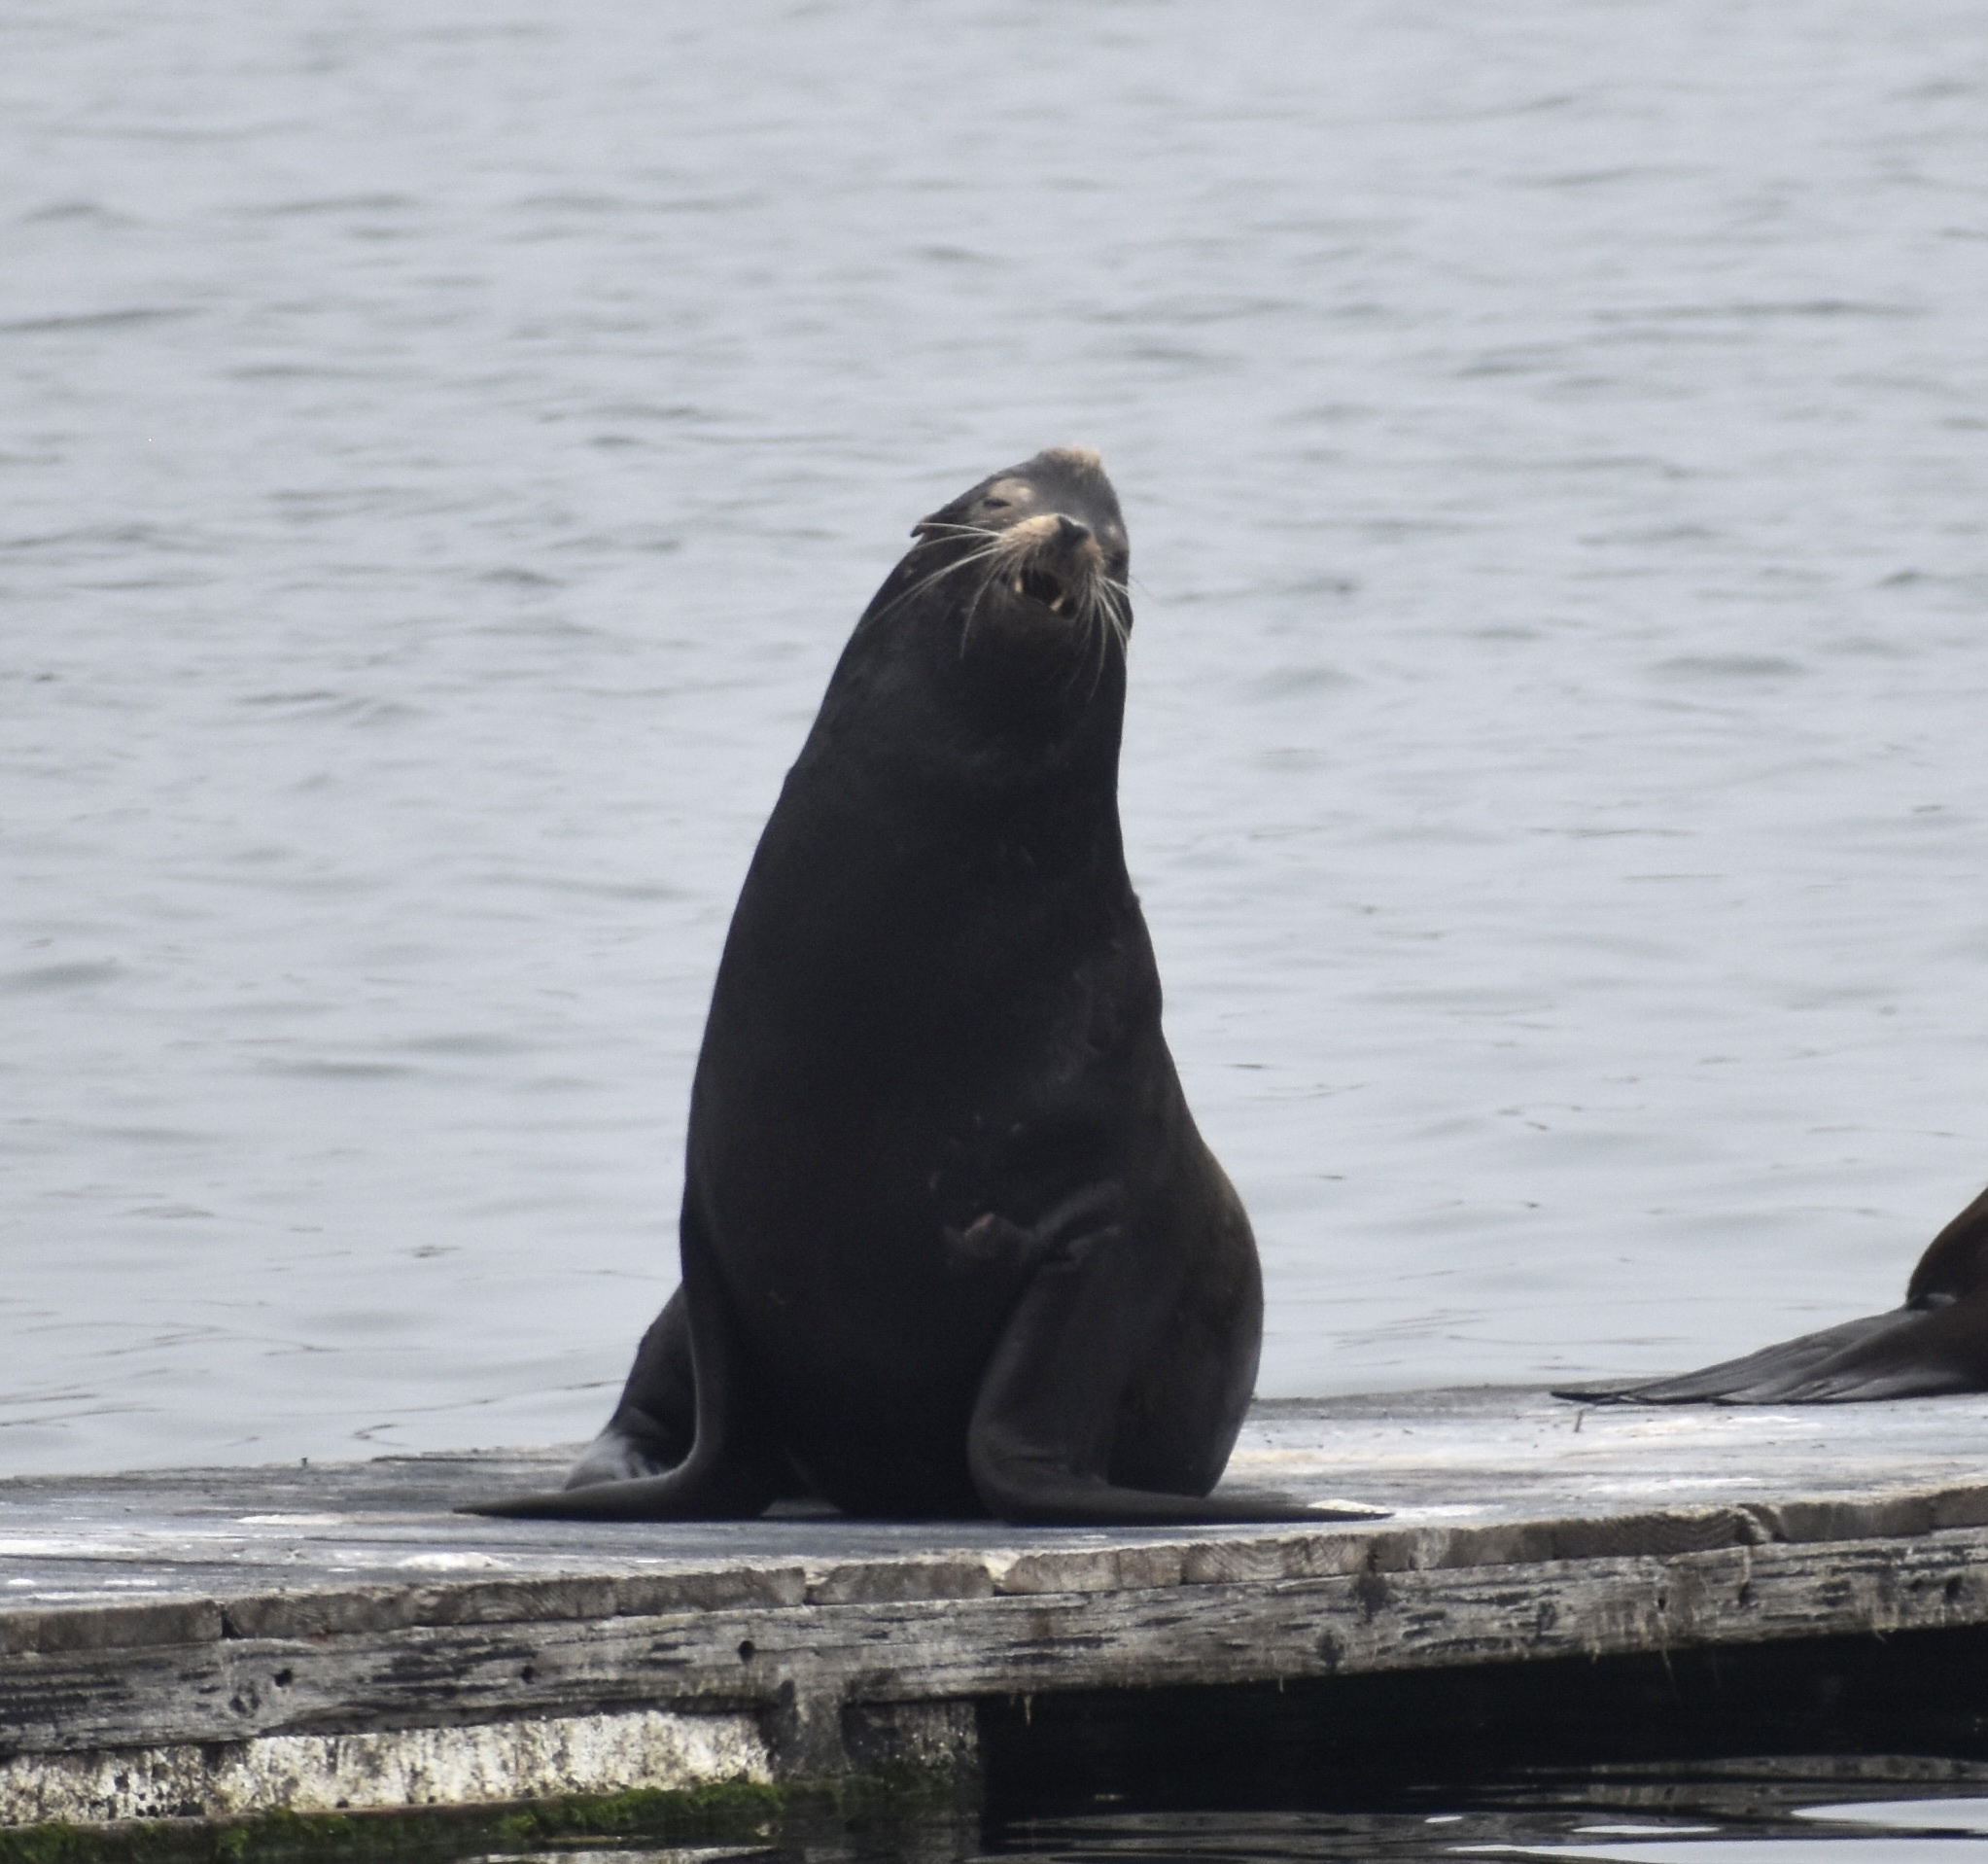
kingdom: Animalia
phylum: Chordata
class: Mammalia
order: Carnivora
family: Otariidae
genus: Zalophus
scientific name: Zalophus californianus
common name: California sea lion
